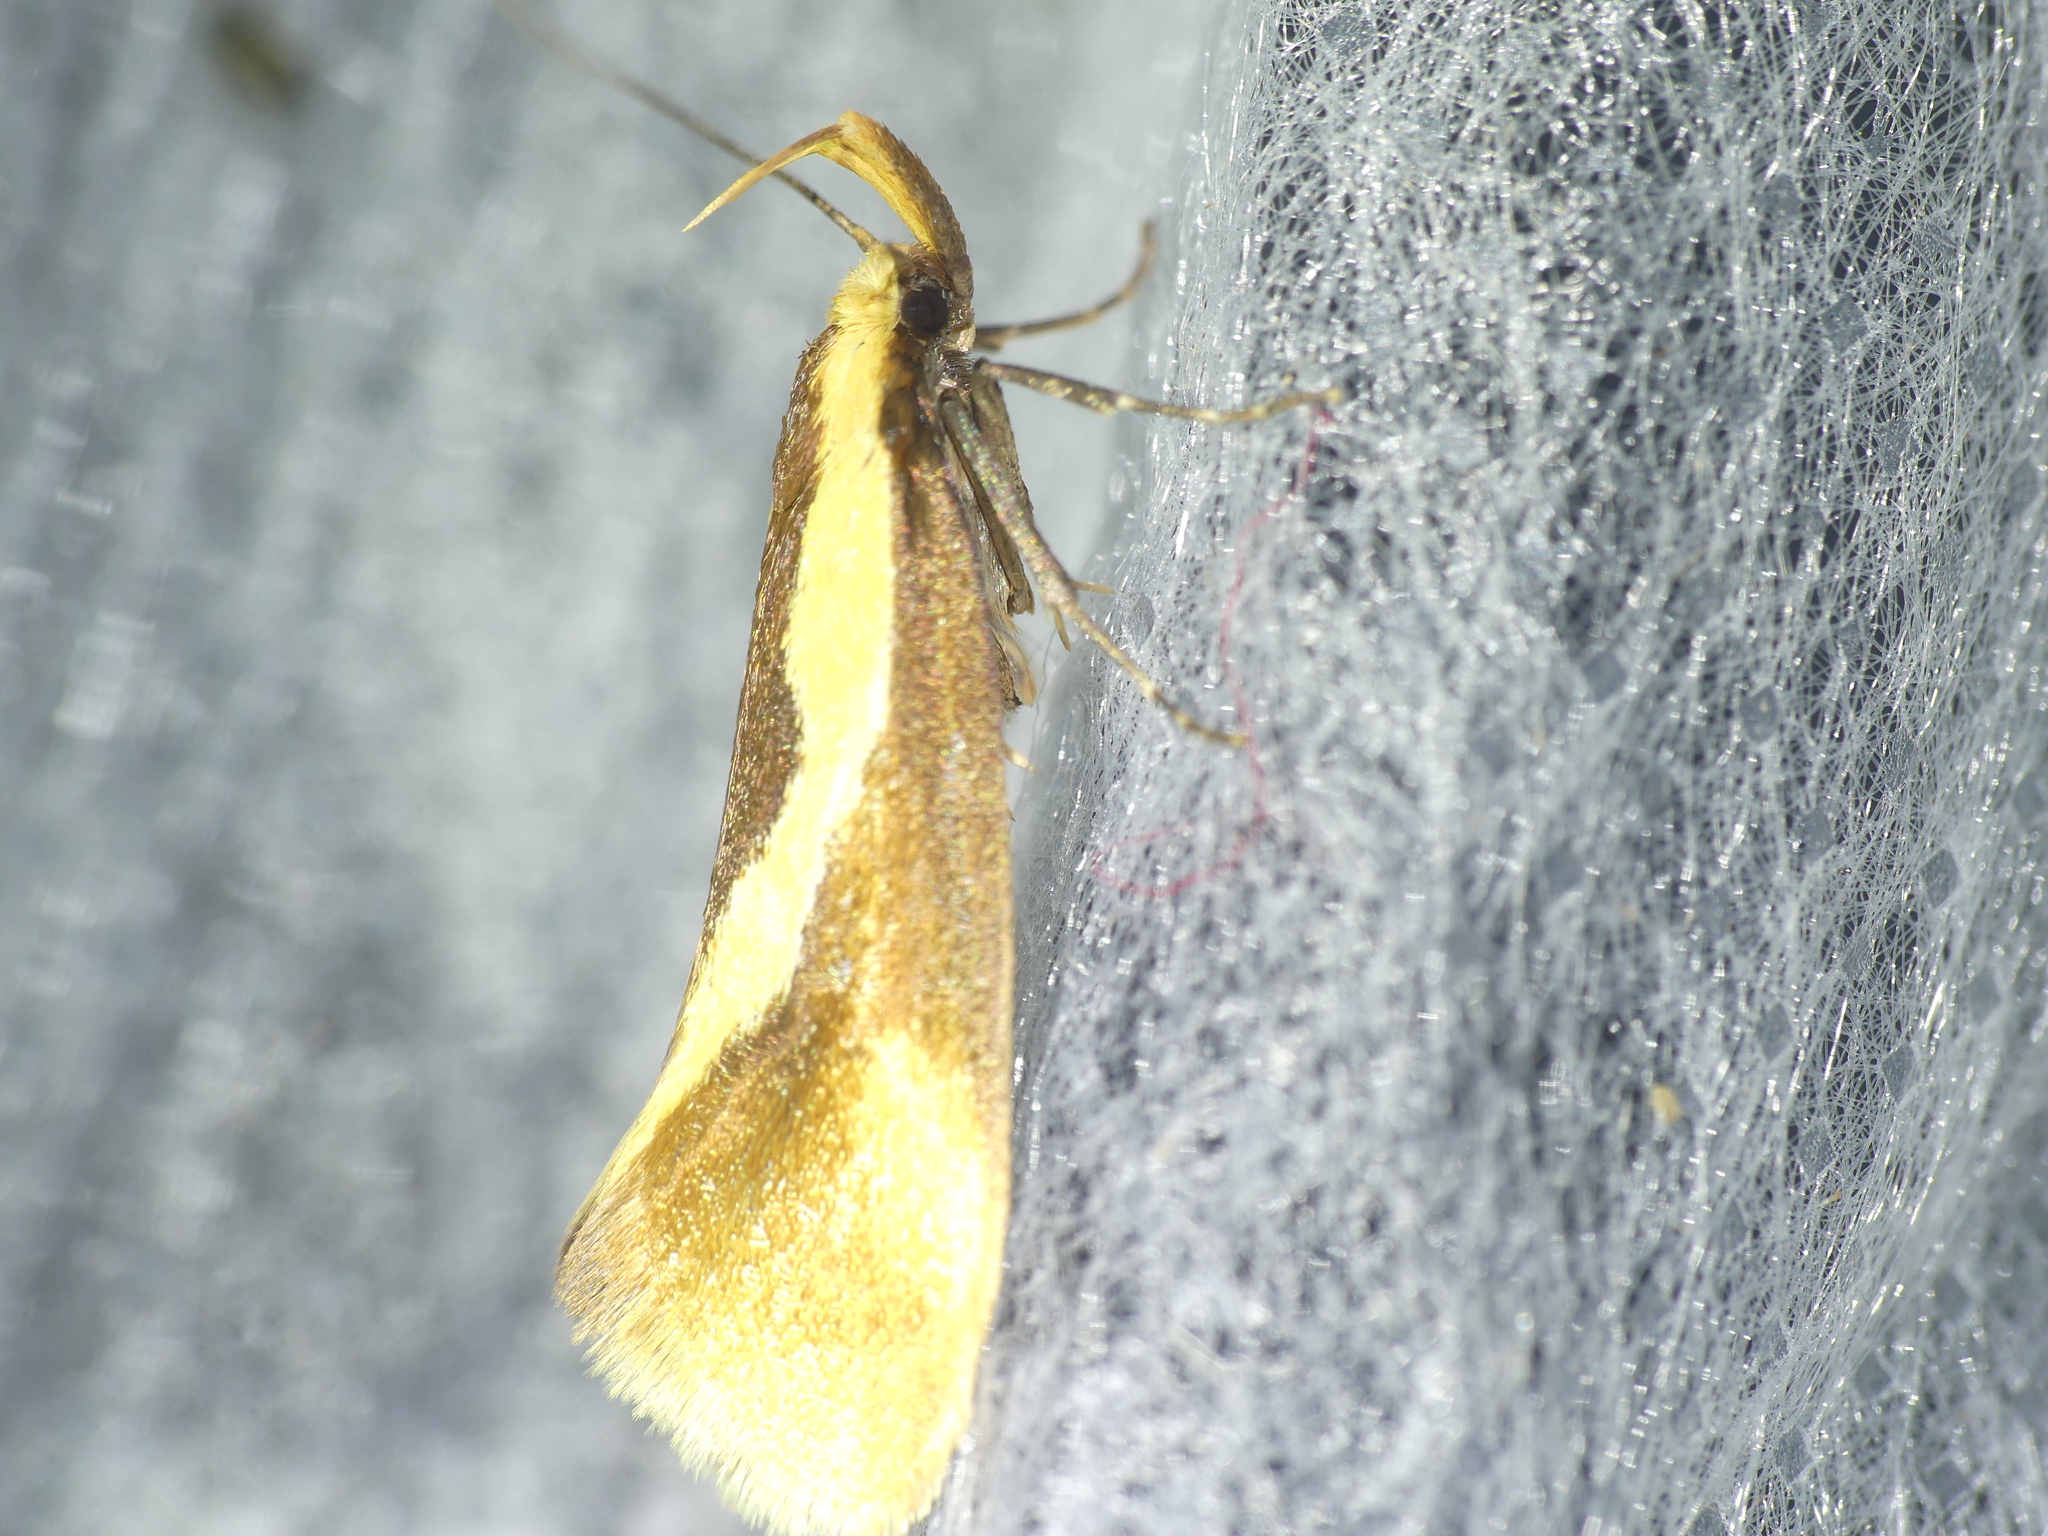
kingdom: Animalia
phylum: Arthropoda
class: Insecta
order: Lepidoptera
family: Oecophoridae
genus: Harpella
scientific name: Harpella forficella
